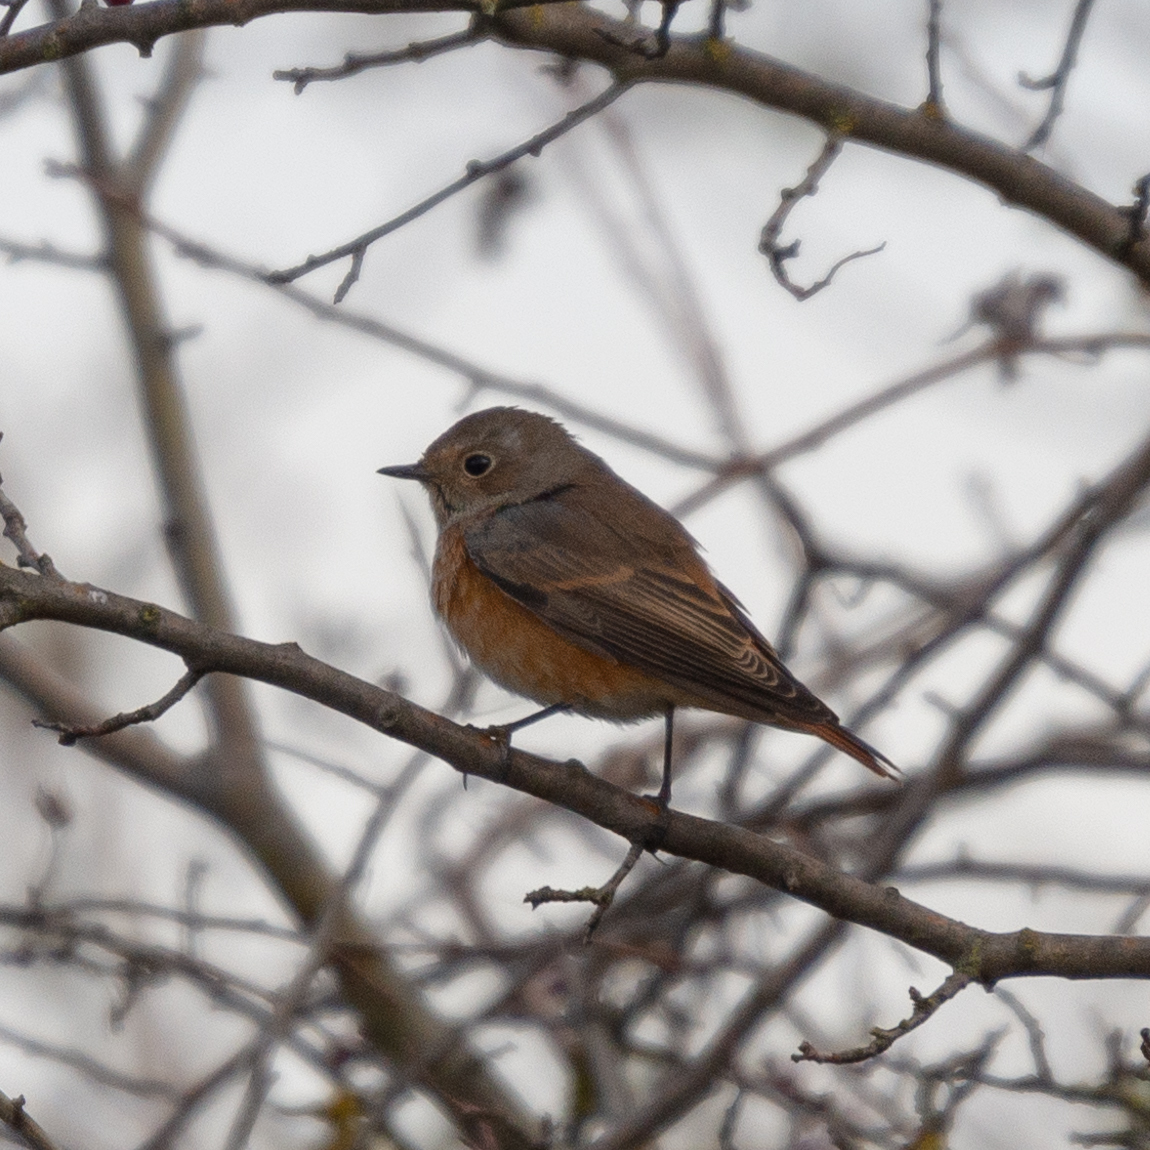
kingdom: Animalia
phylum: Chordata
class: Aves
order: Passeriformes
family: Muscicapidae
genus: Phoenicurus
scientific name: Phoenicurus phoenicurus
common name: Common redstart
